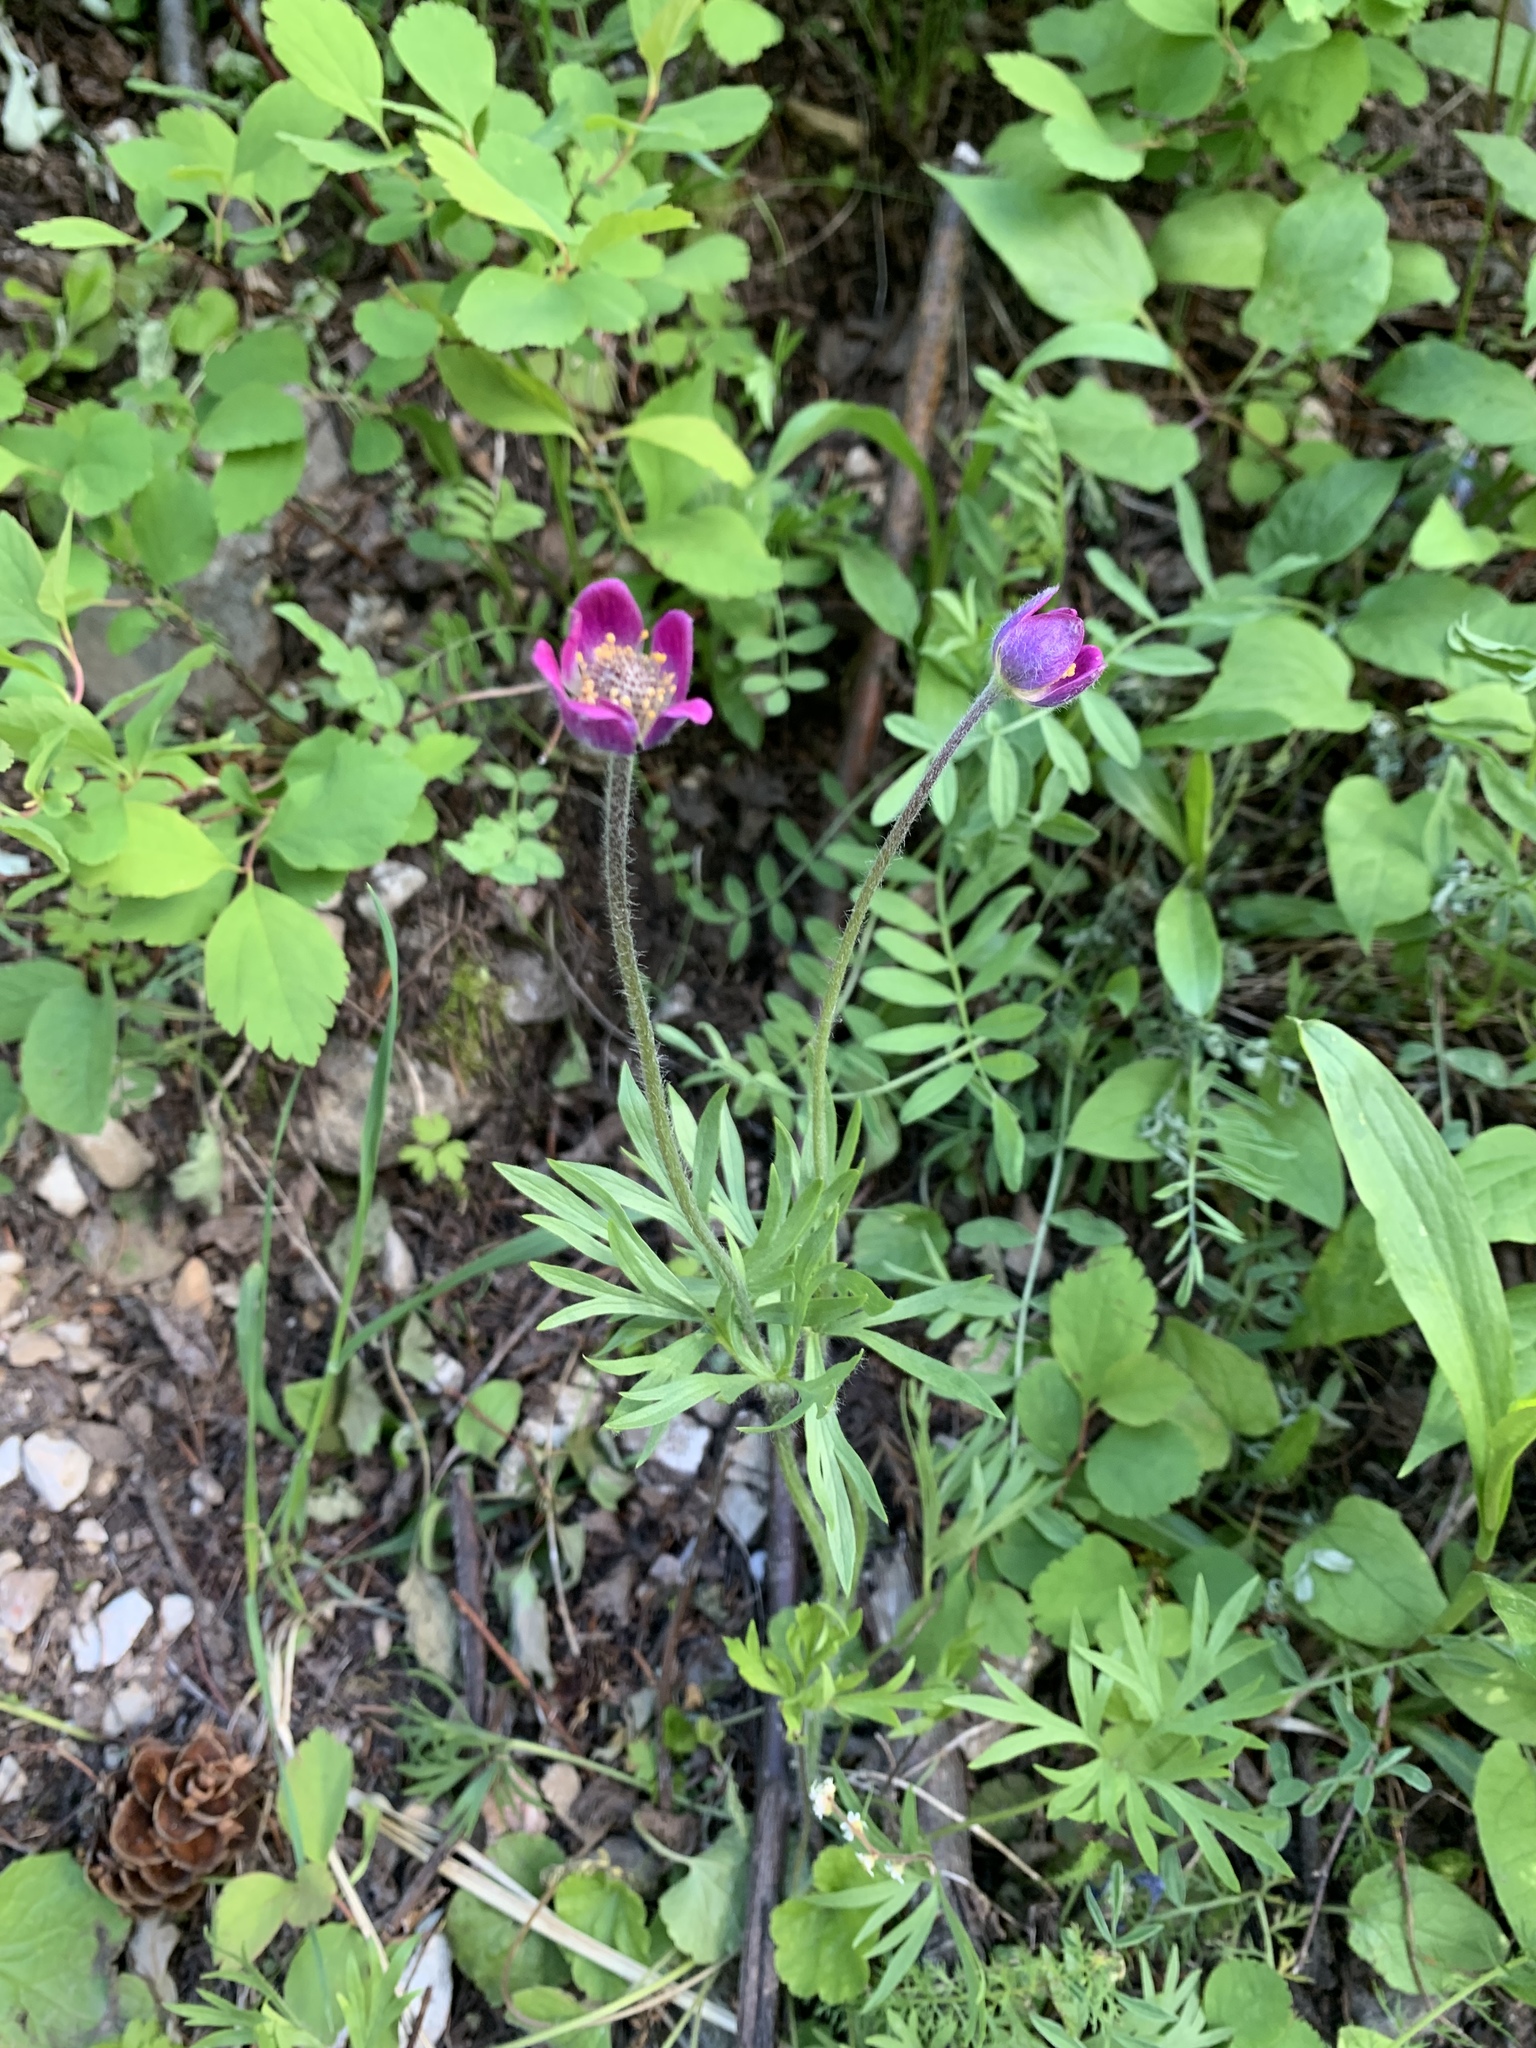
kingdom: Plantae
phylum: Tracheophyta
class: Magnoliopsida
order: Ranunculales
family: Ranunculaceae
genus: Anemone
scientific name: Anemone multifida
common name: Bird's-foot anemone
